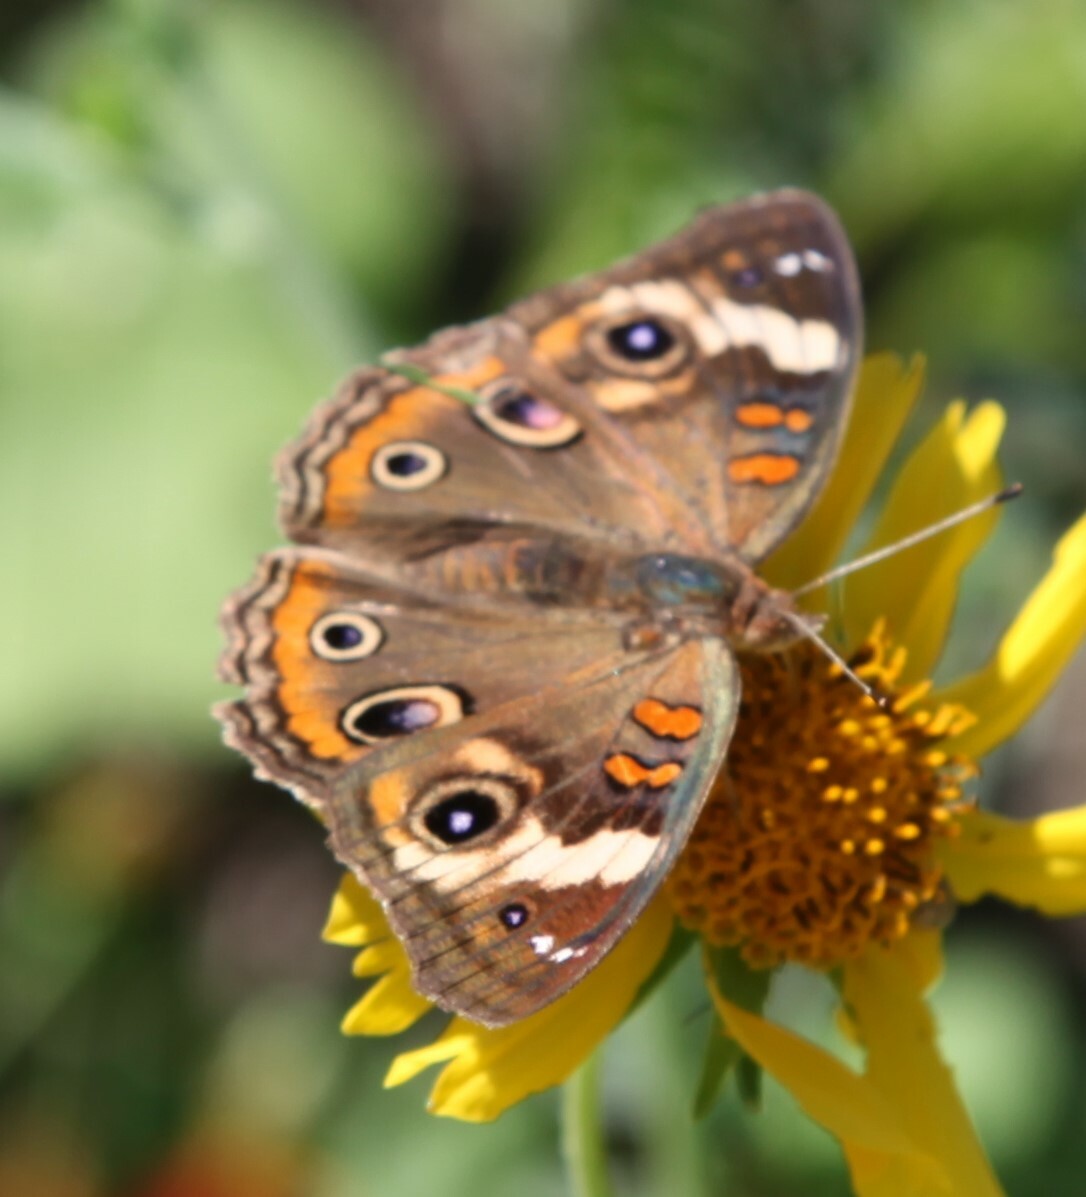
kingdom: Animalia
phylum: Arthropoda
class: Insecta
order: Lepidoptera
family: Nymphalidae
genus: Junonia
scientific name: Junonia coenia
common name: Common buckeye
